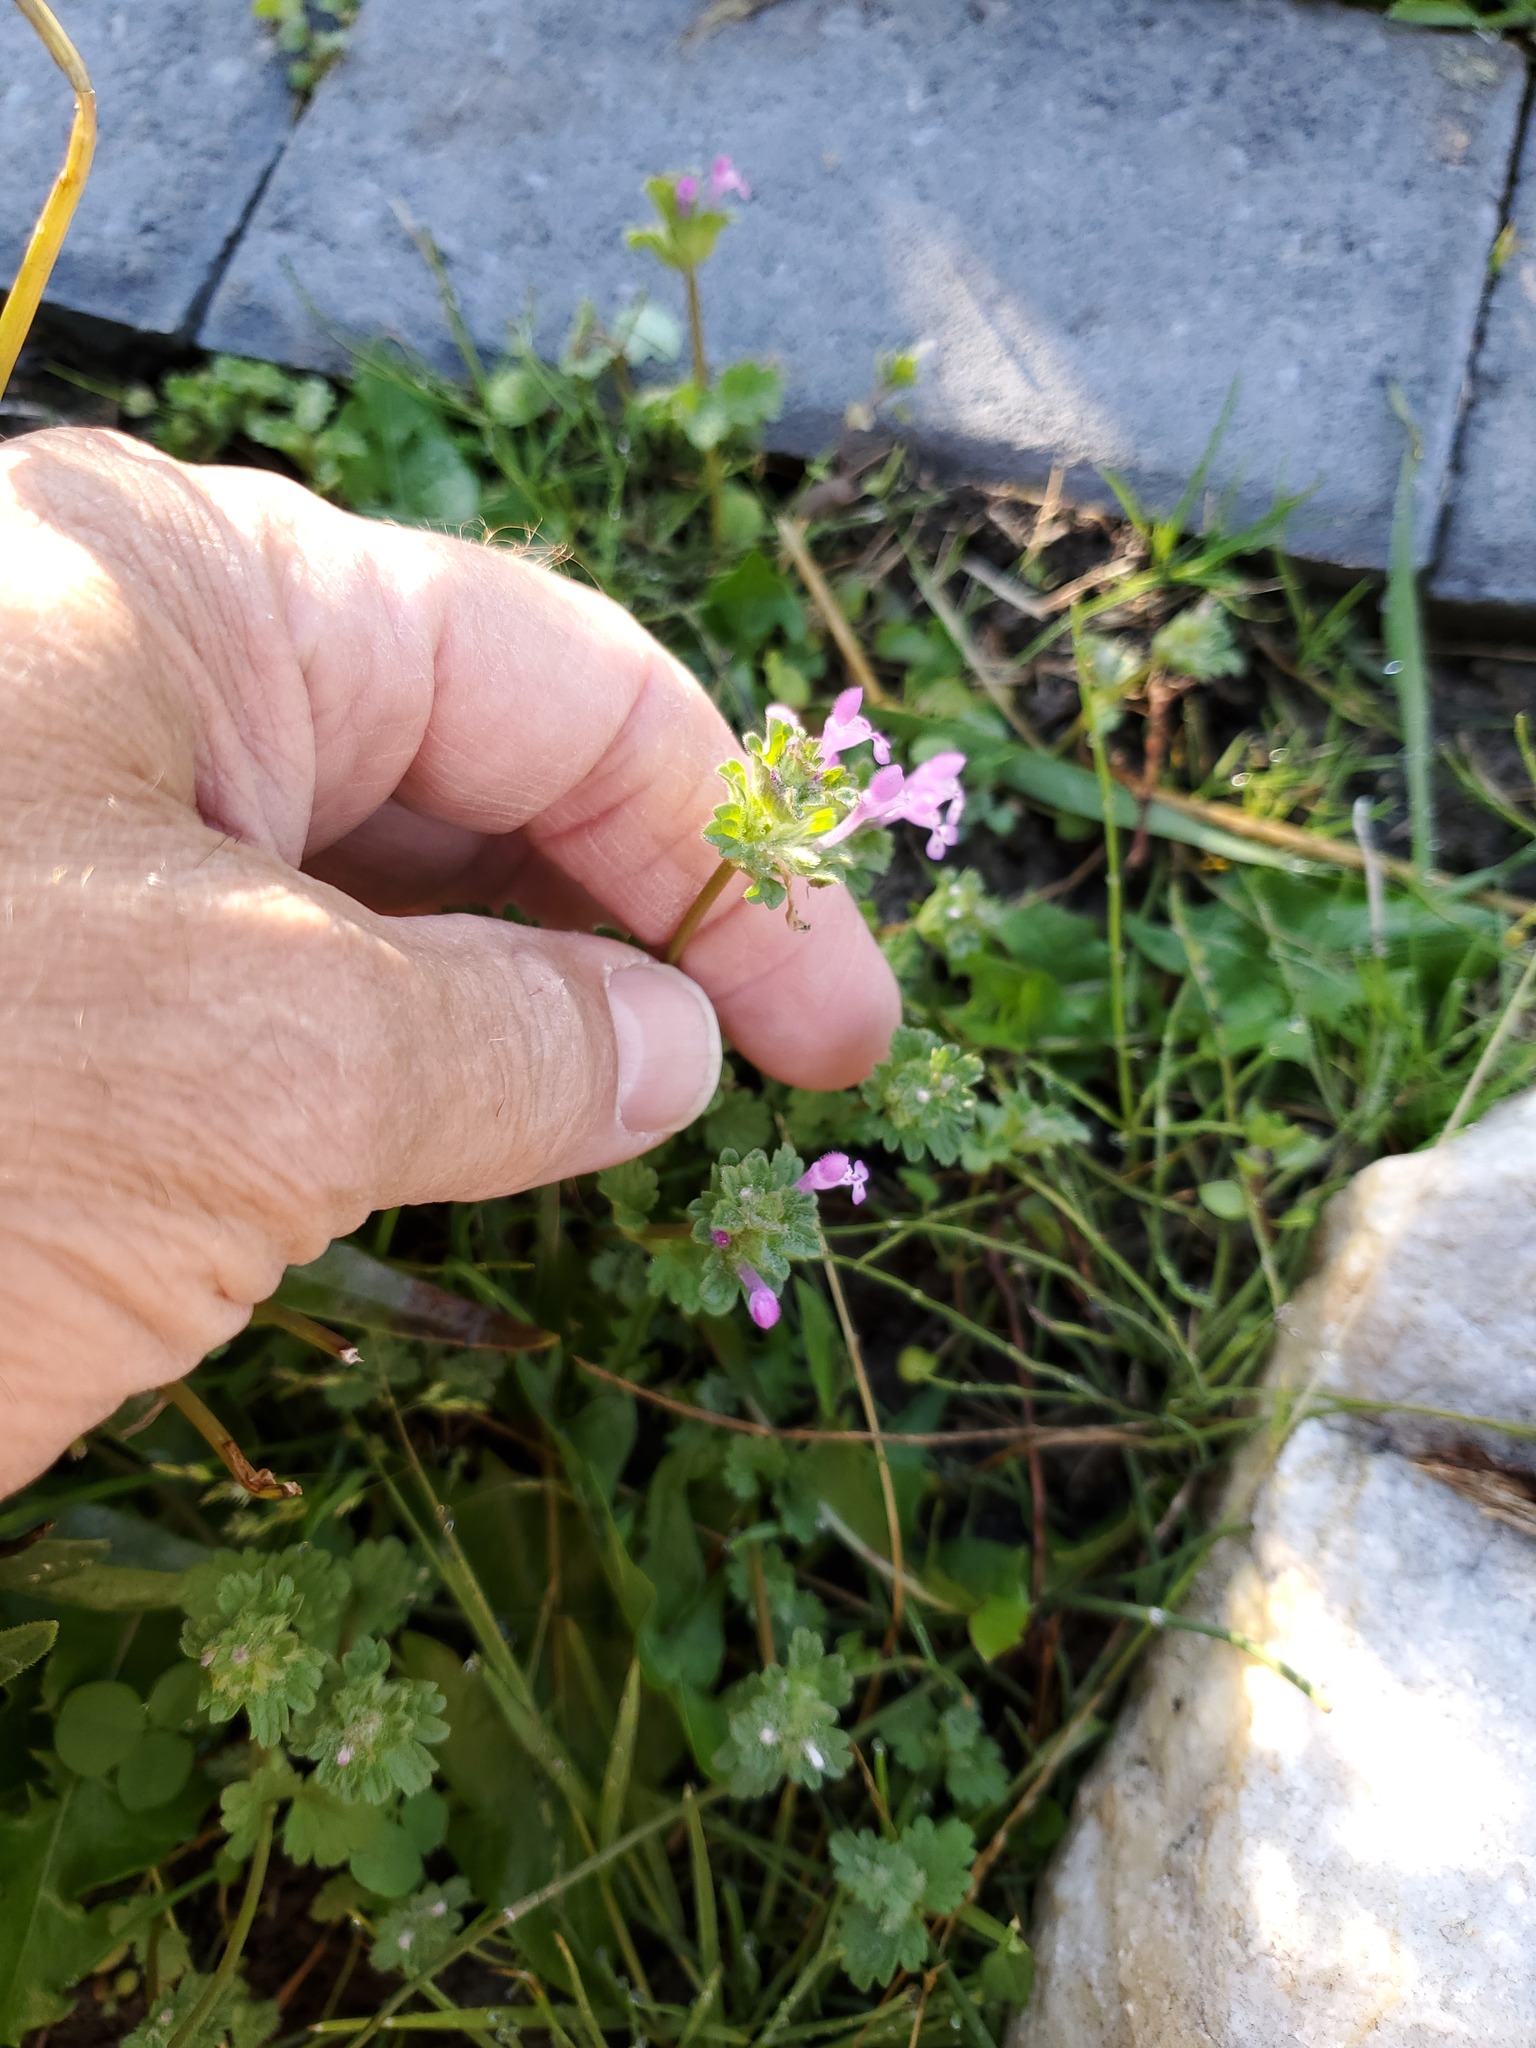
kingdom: Plantae
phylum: Tracheophyta
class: Magnoliopsida
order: Lamiales
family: Lamiaceae
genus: Lamium
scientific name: Lamium amplexicaule
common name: Henbit dead-nettle
